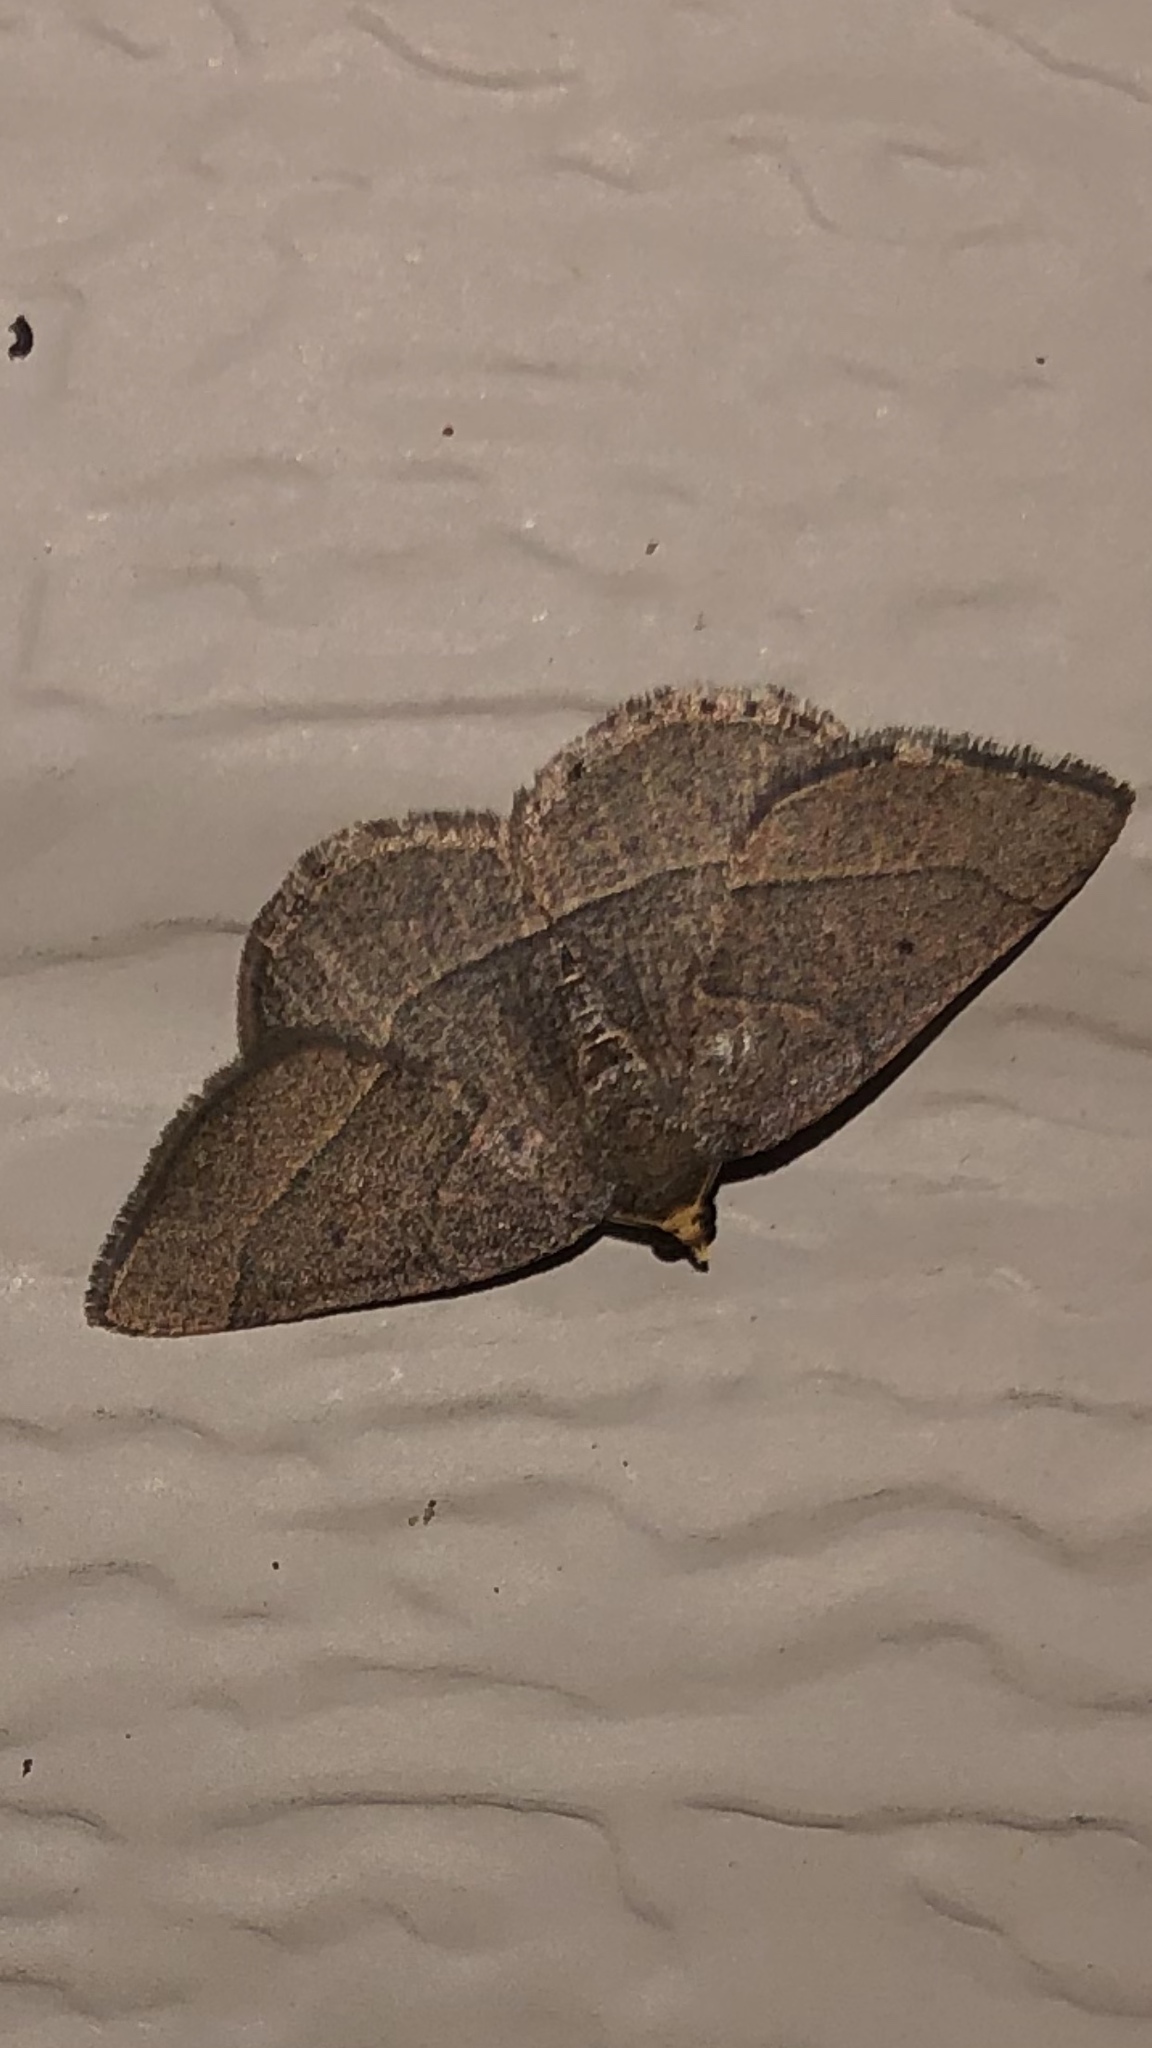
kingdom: Animalia
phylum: Arthropoda
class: Insecta
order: Lepidoptera
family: Geometridae
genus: Episemasia
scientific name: Episemasia cervinaria
